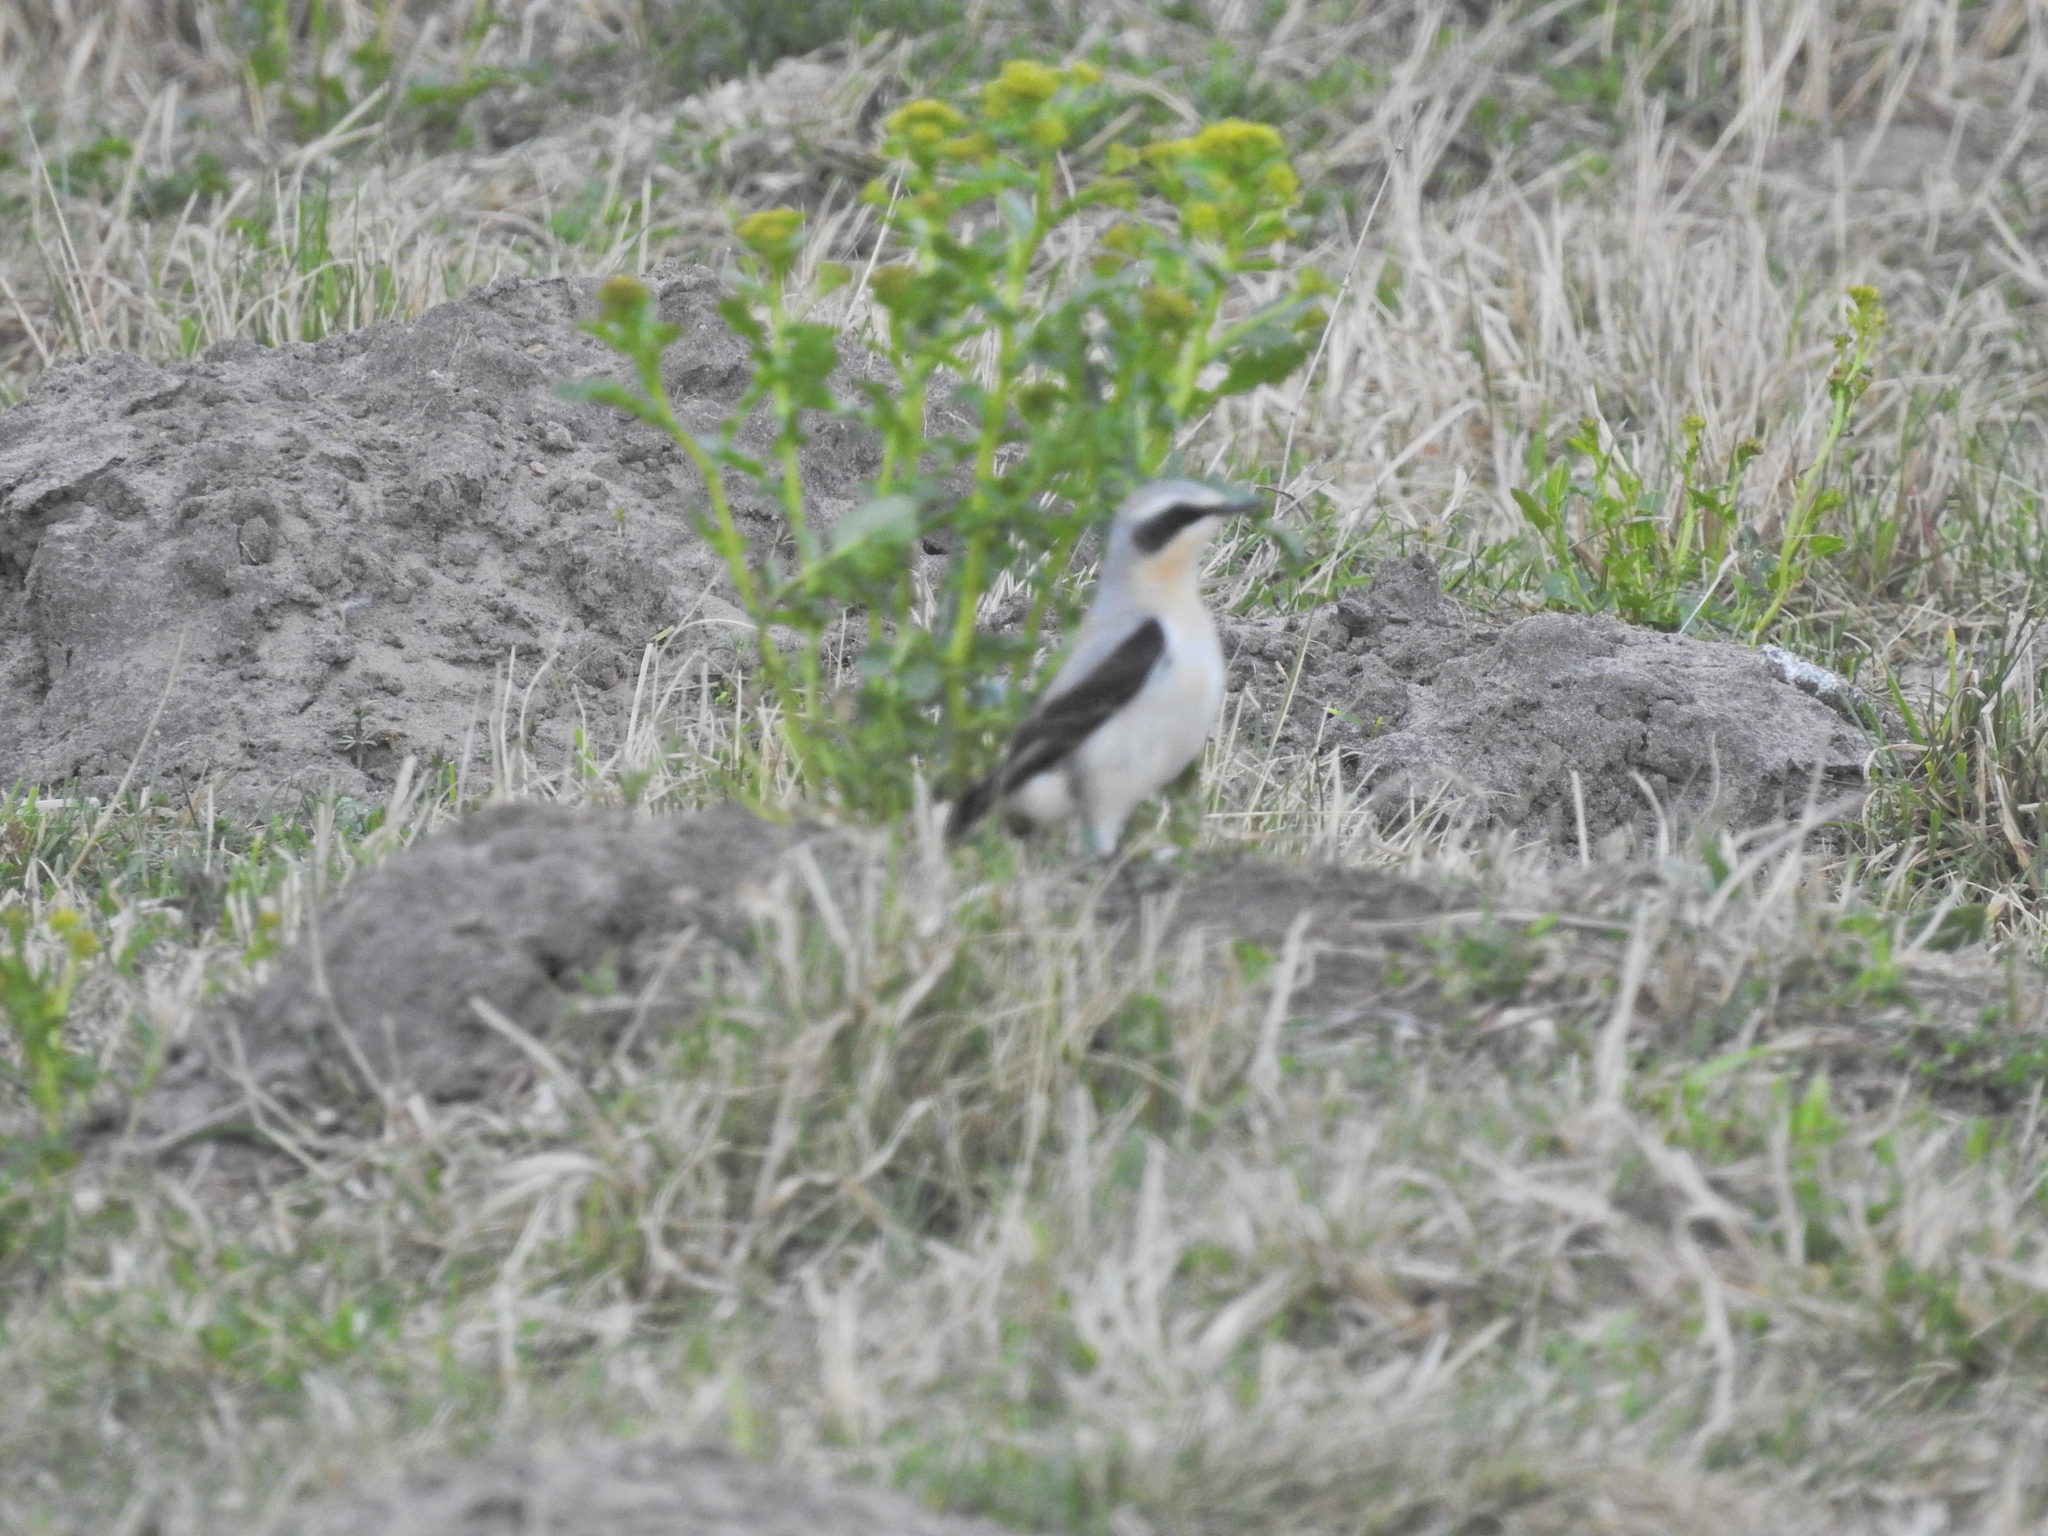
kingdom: Animalia
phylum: Chordata
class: Aves
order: Passeriformes
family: Muscicapidae
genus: Oenanthe
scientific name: Oenanthe oenanthe
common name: Northern wheatear
